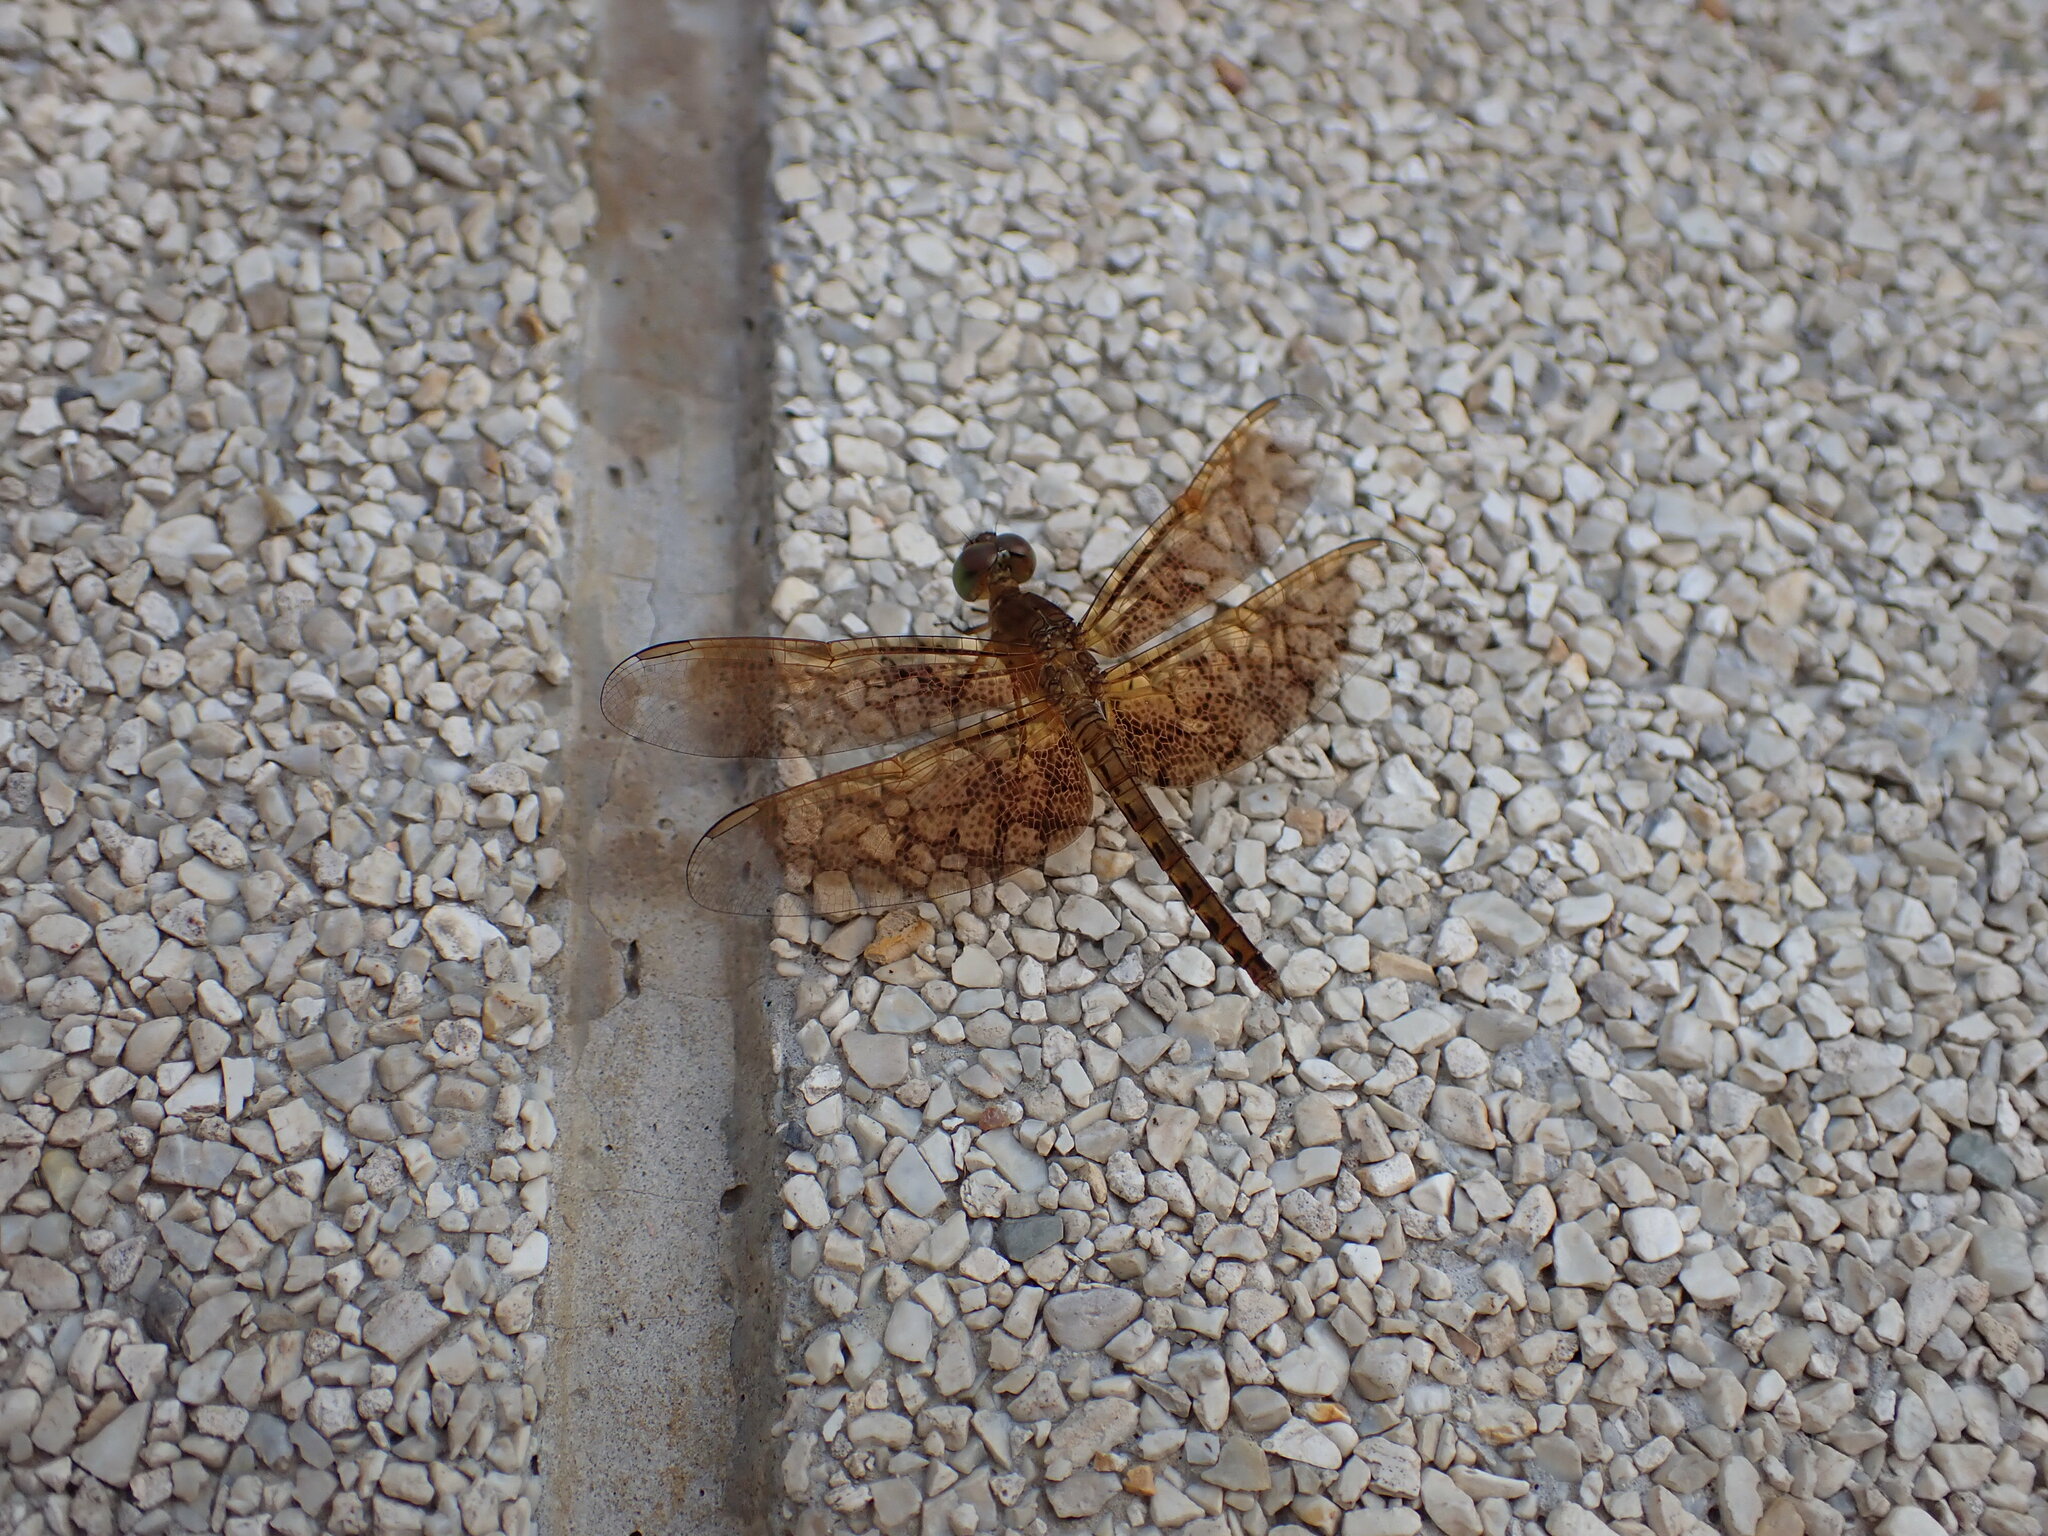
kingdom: Animalia
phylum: Arthropoda
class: Insecta
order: Odonata
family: Libellulidae
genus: Neurothemis
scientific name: Neurothemis fluctuans
